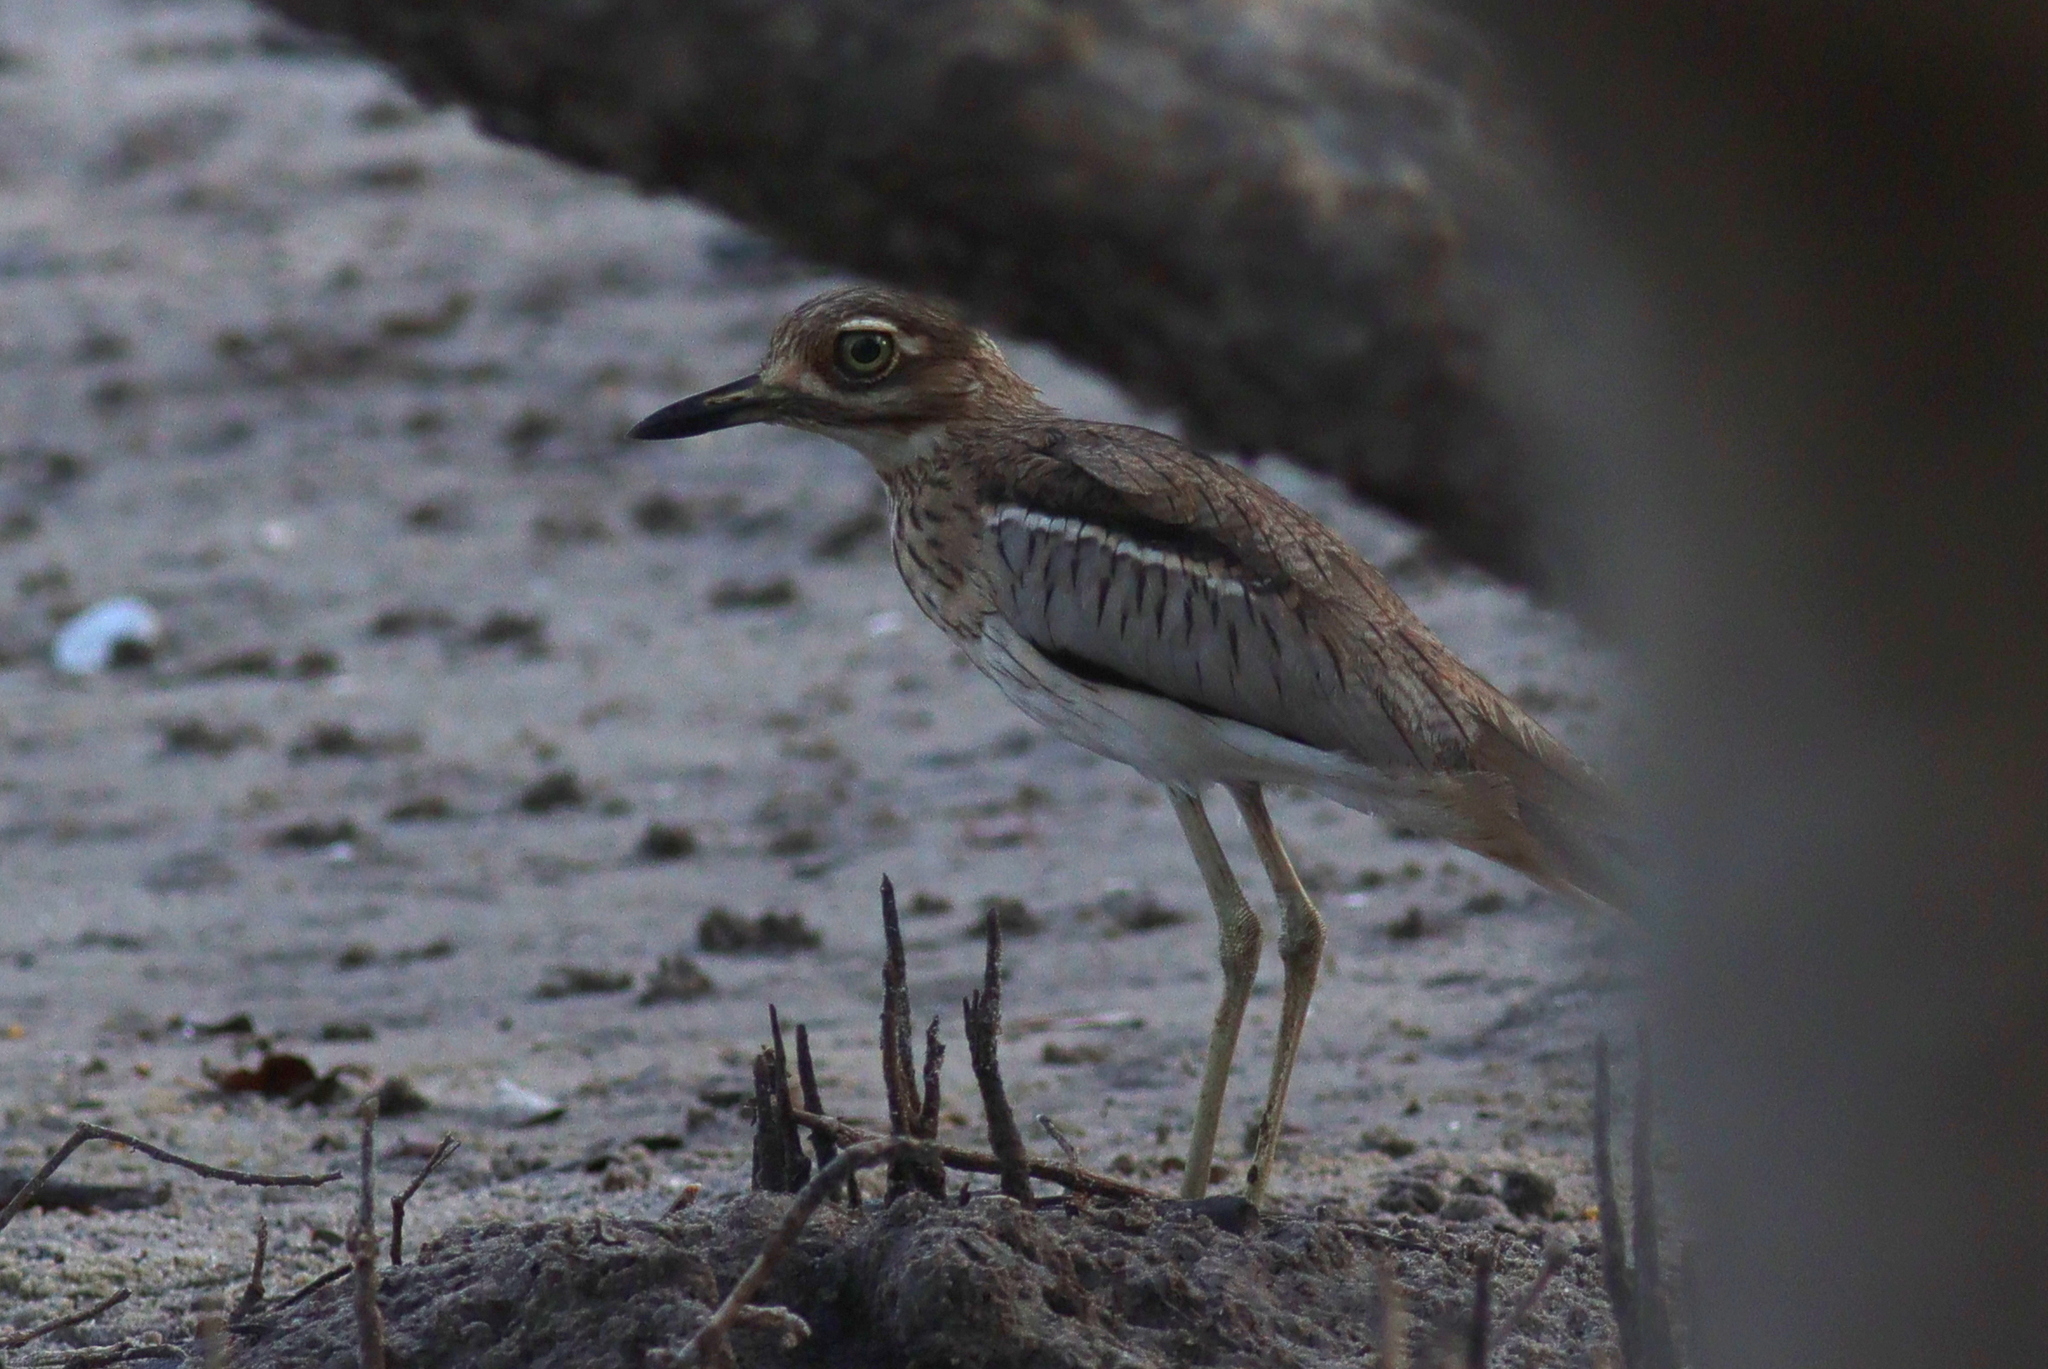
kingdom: Animalia
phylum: Chordata
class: Aves
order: Charadriiformes
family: Burhinidae
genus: Burhinus
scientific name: Burhinus vermiculatus
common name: Water thick-knee
